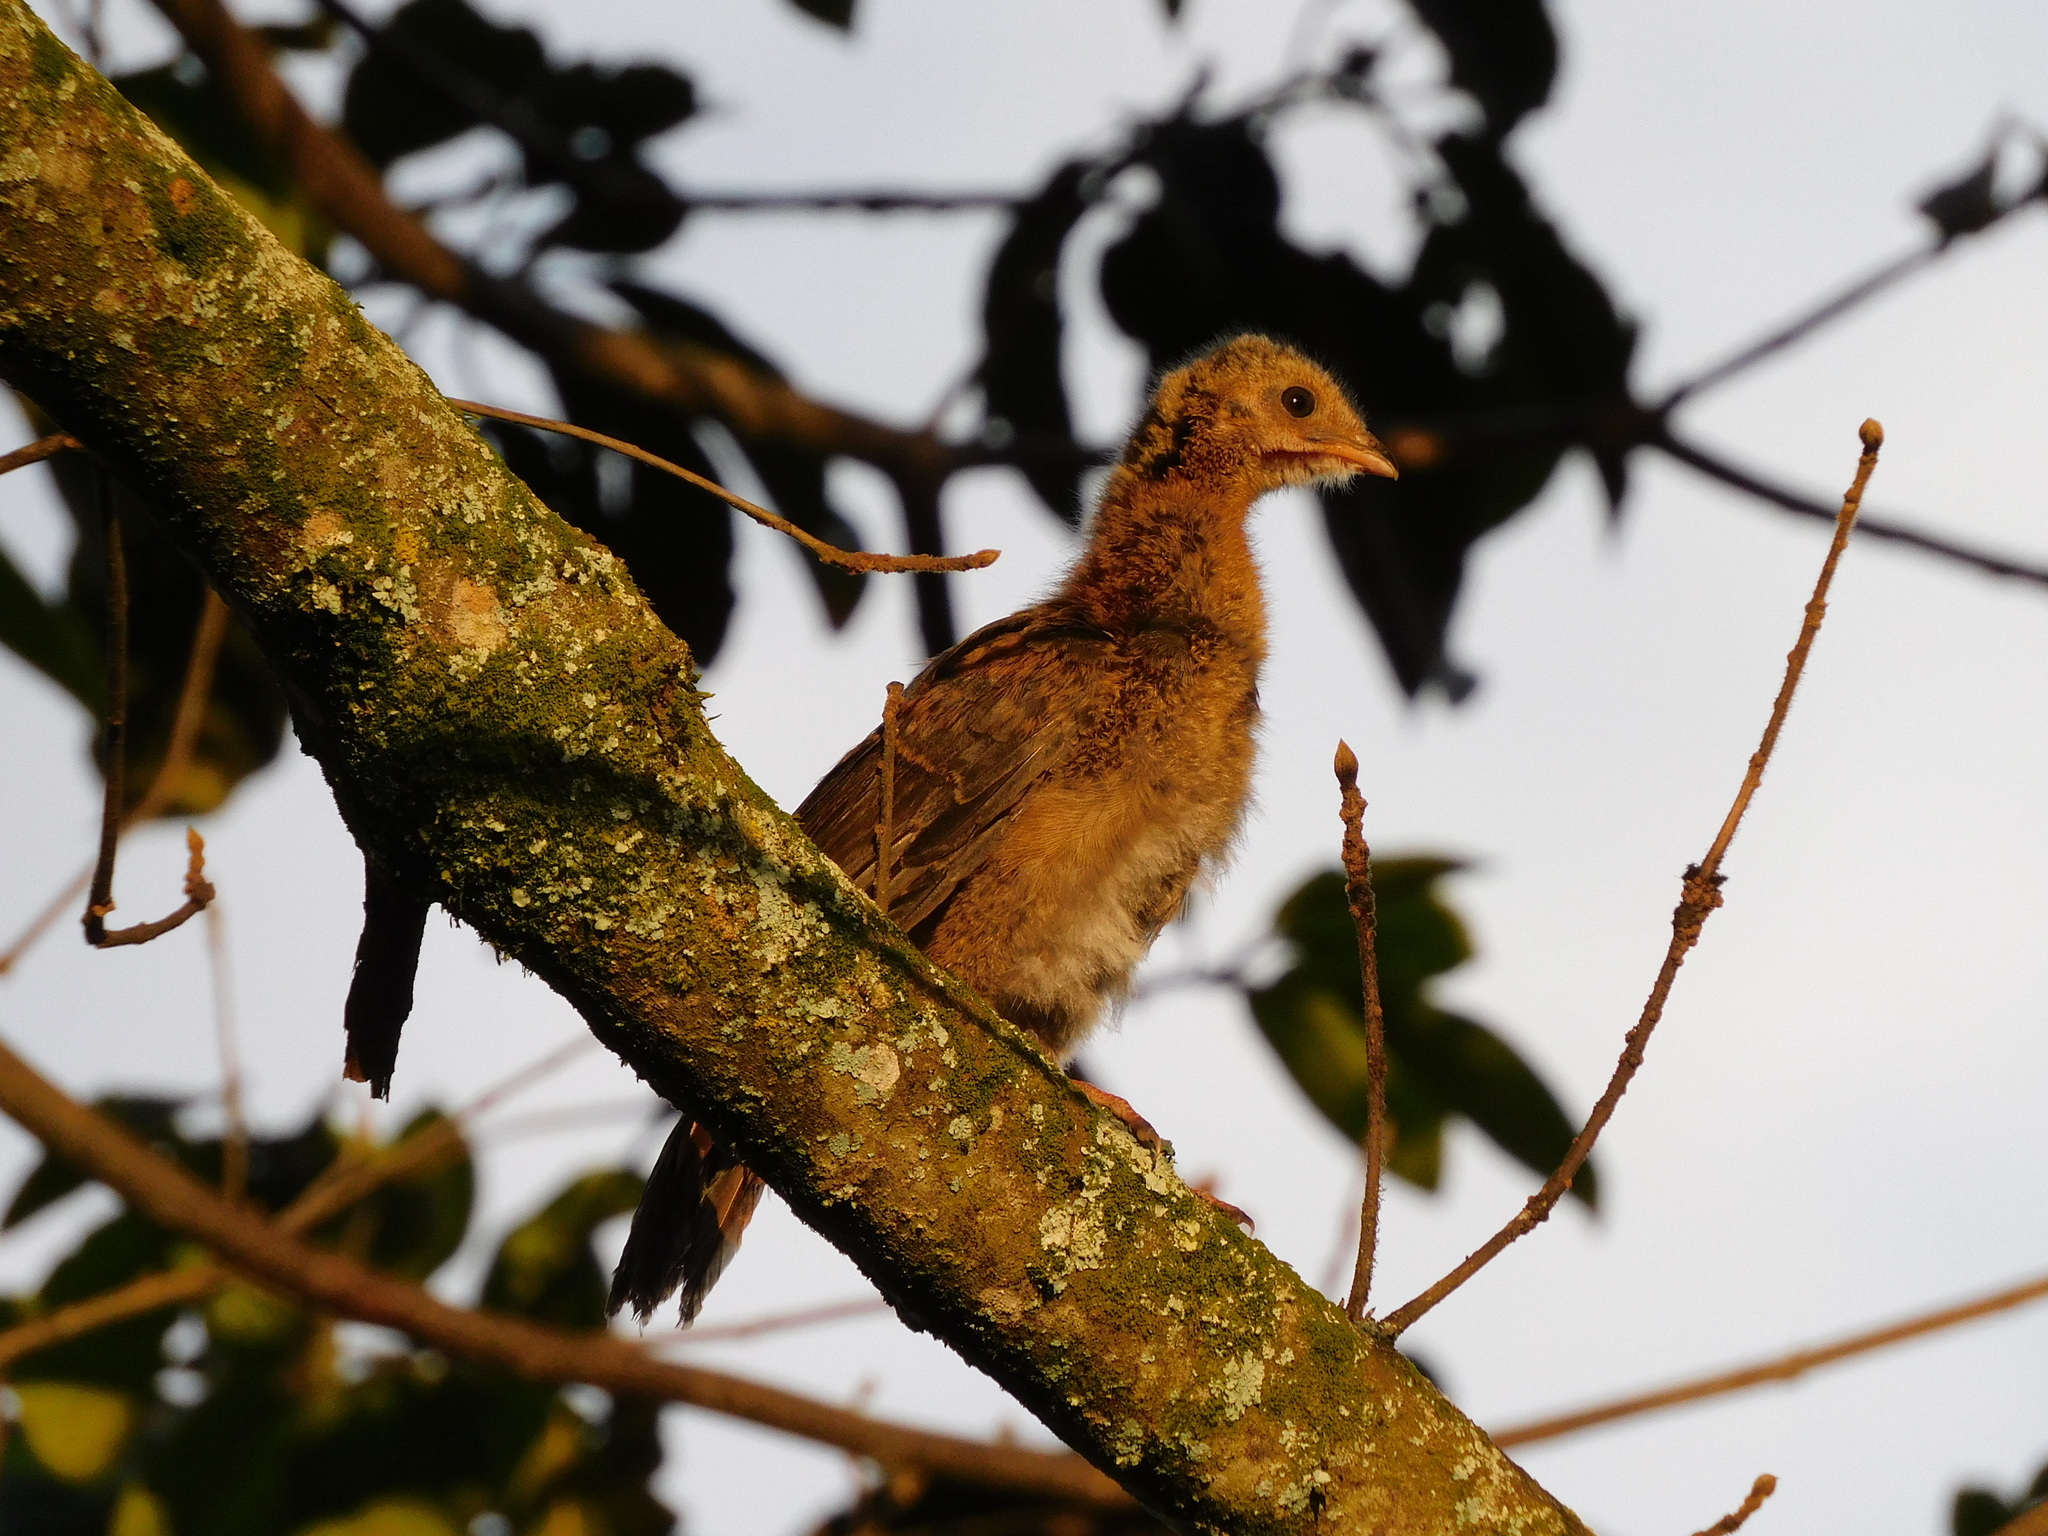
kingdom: Animalia
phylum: Chordata
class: Aves
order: Galliformes
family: Cracidae
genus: Ortalis
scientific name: Ortalis columbiana
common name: Colombian chachalaca
